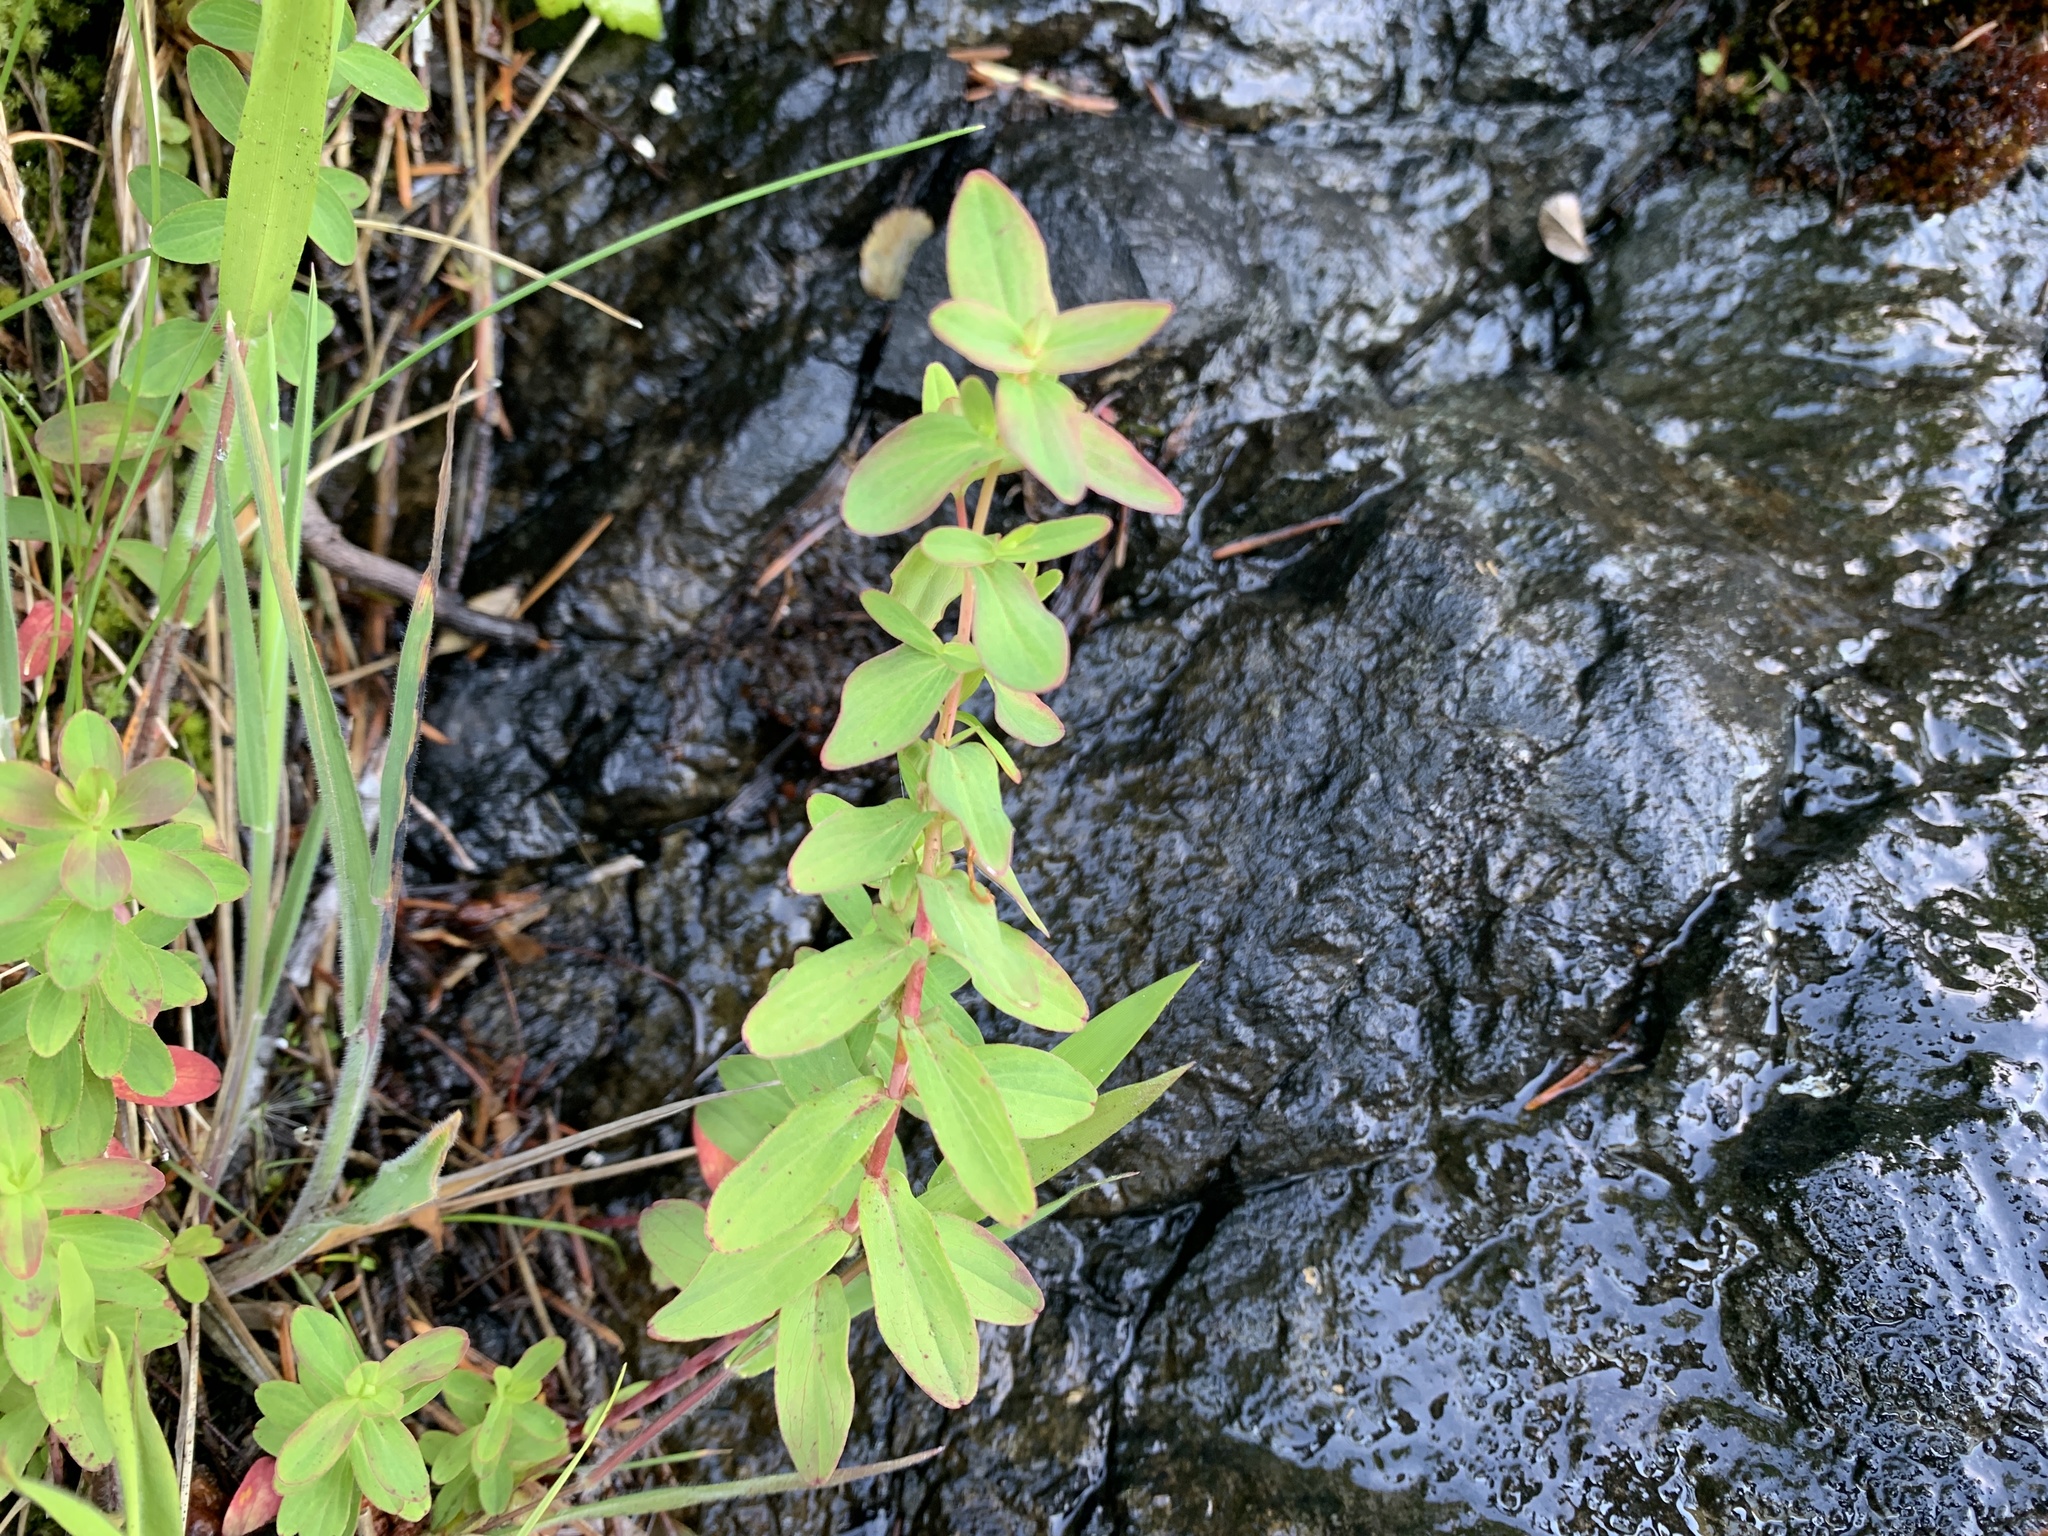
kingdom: Plantae
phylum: Tracheophyta
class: Magnoliopsida
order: Malpighiales
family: Hypericaceae
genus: Hypericum
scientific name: Hypericum scouleri
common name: Scouler's st. john's-wort
